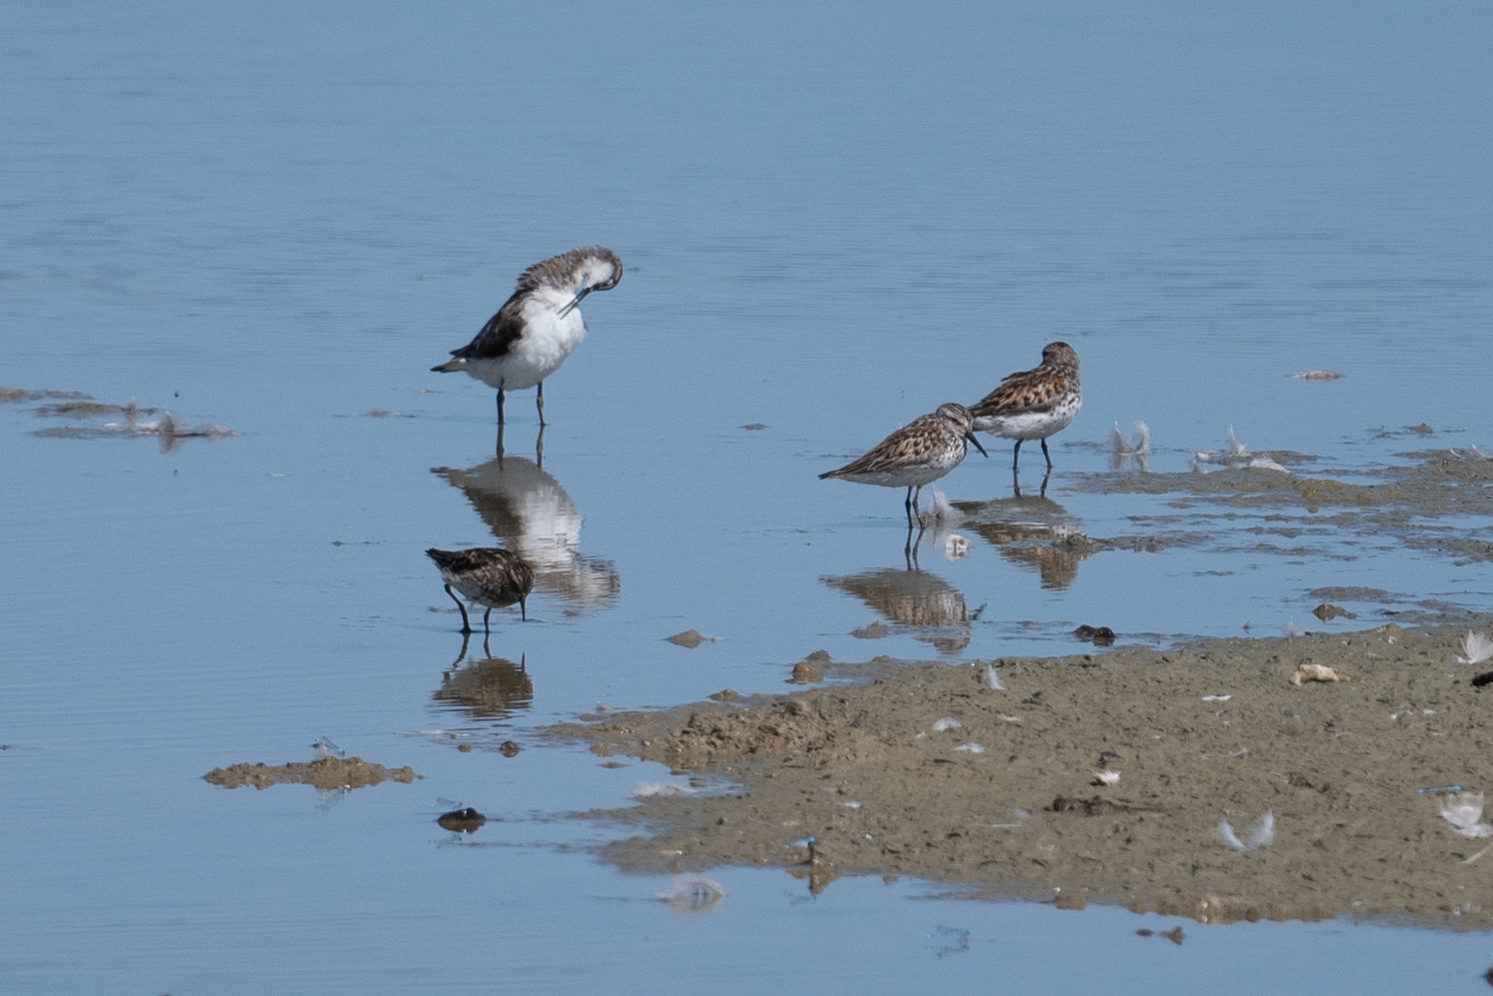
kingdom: Animalia
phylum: Chordata
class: Aves
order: Charadriiformes
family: Scolopacidae
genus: Calidris
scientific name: Calidris
